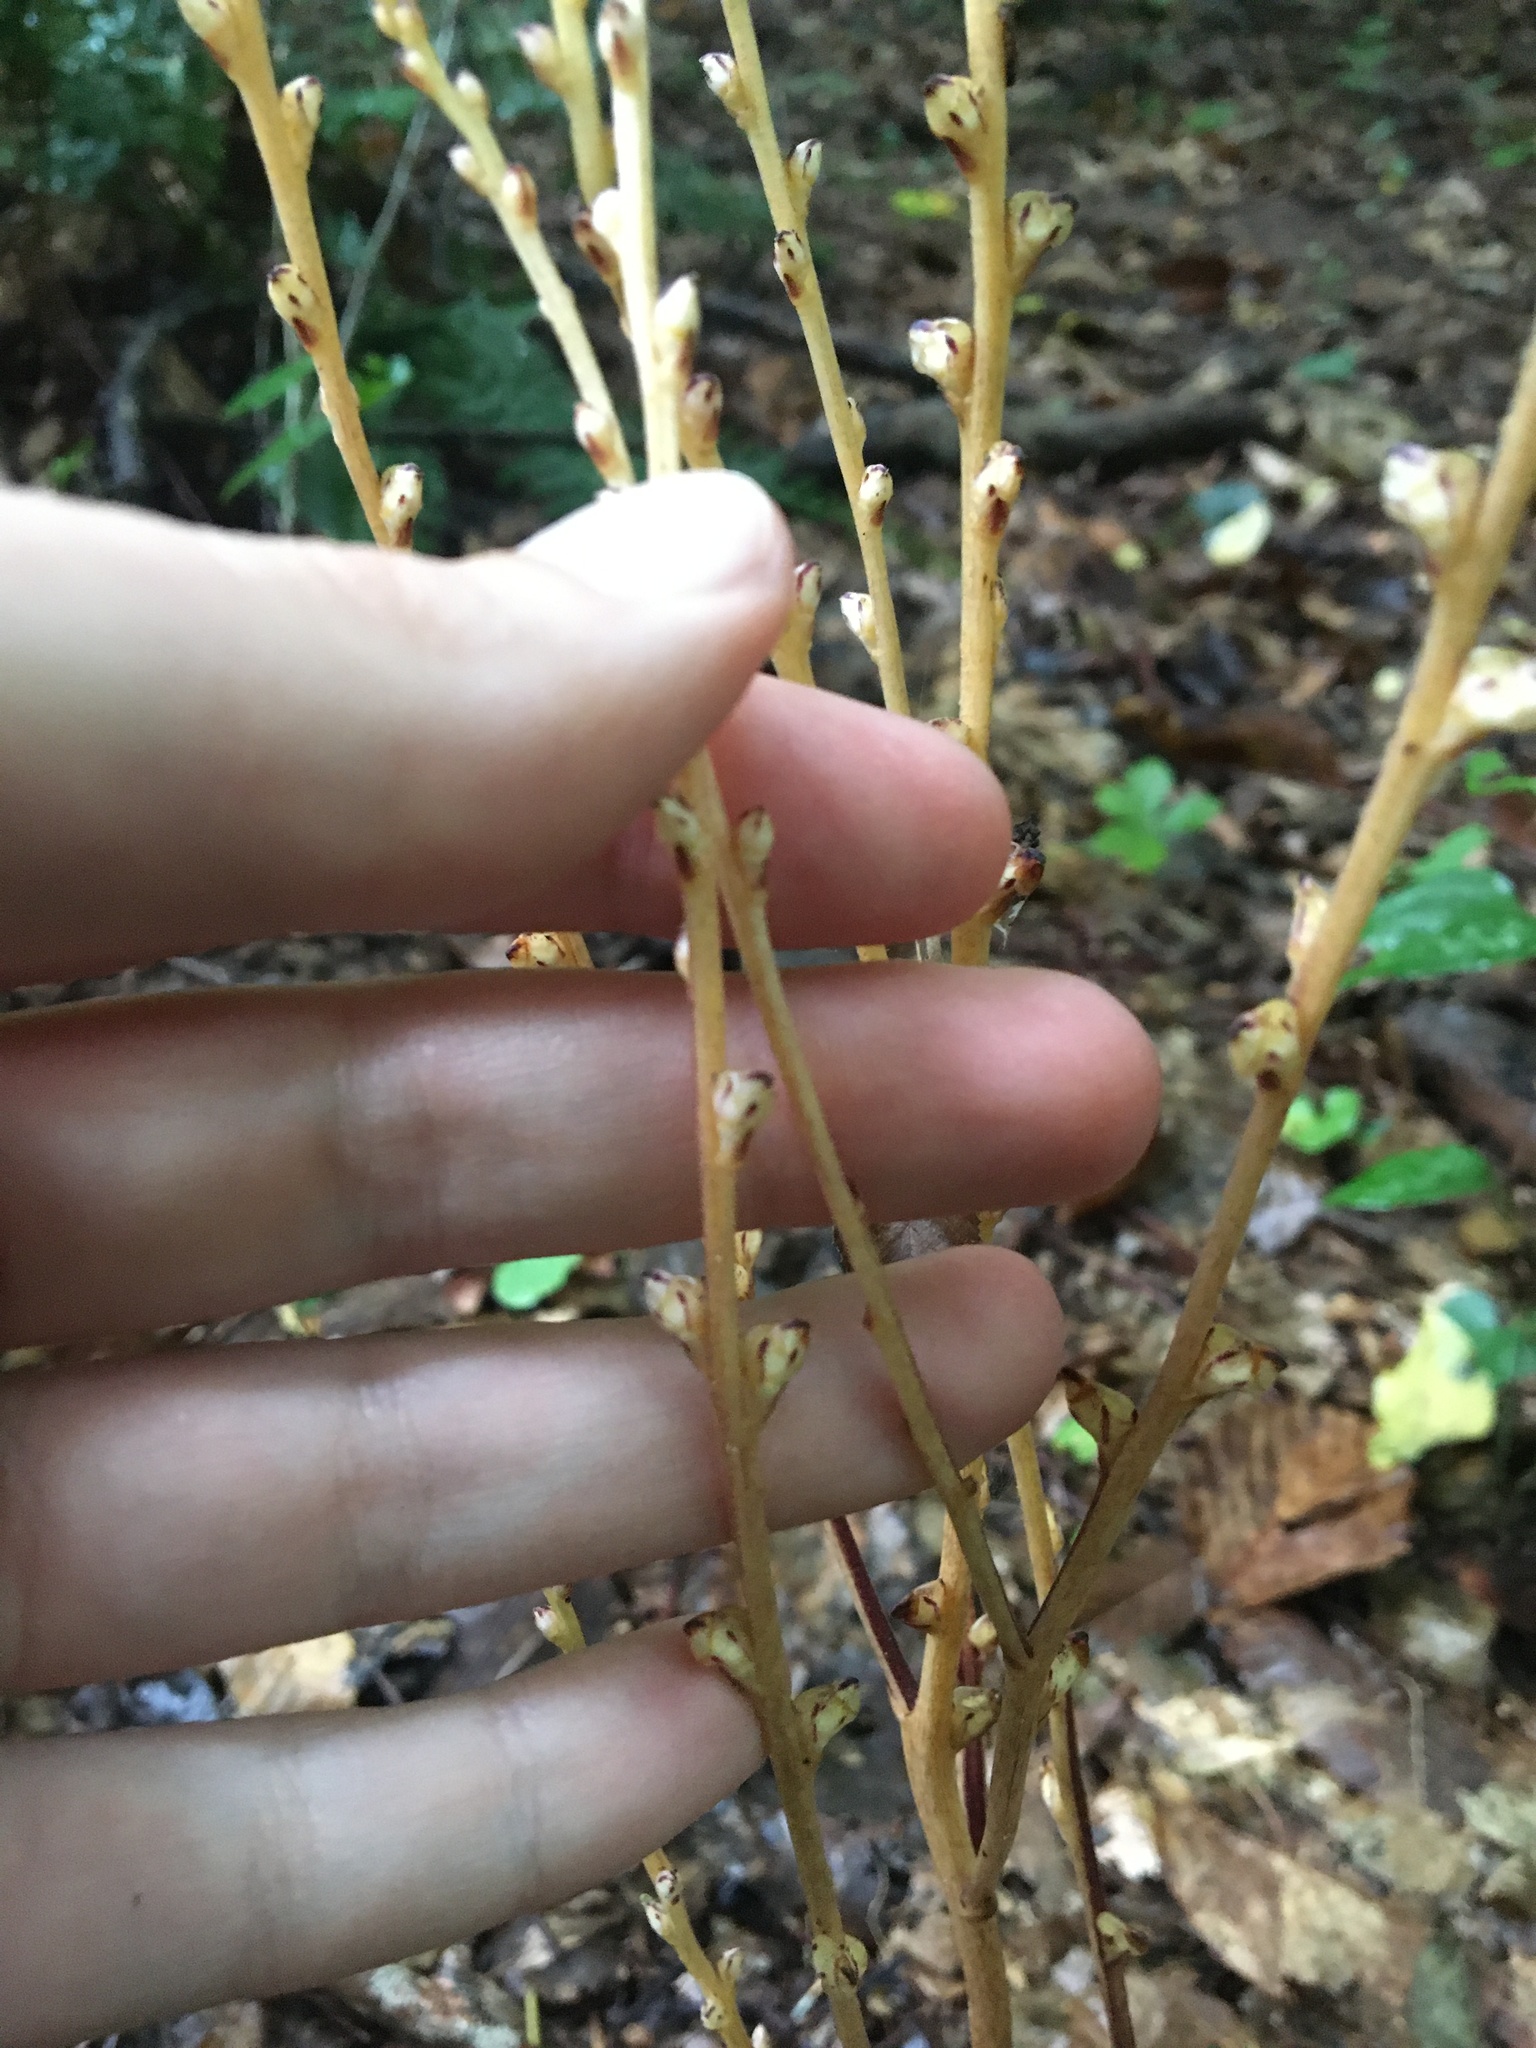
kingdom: Plantae
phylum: Tracheophyta
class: Magnoliopsida
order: Lamiales
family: Orobanchaceae
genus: Epifagus
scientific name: Epifagus virginiana
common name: Beechdrops
